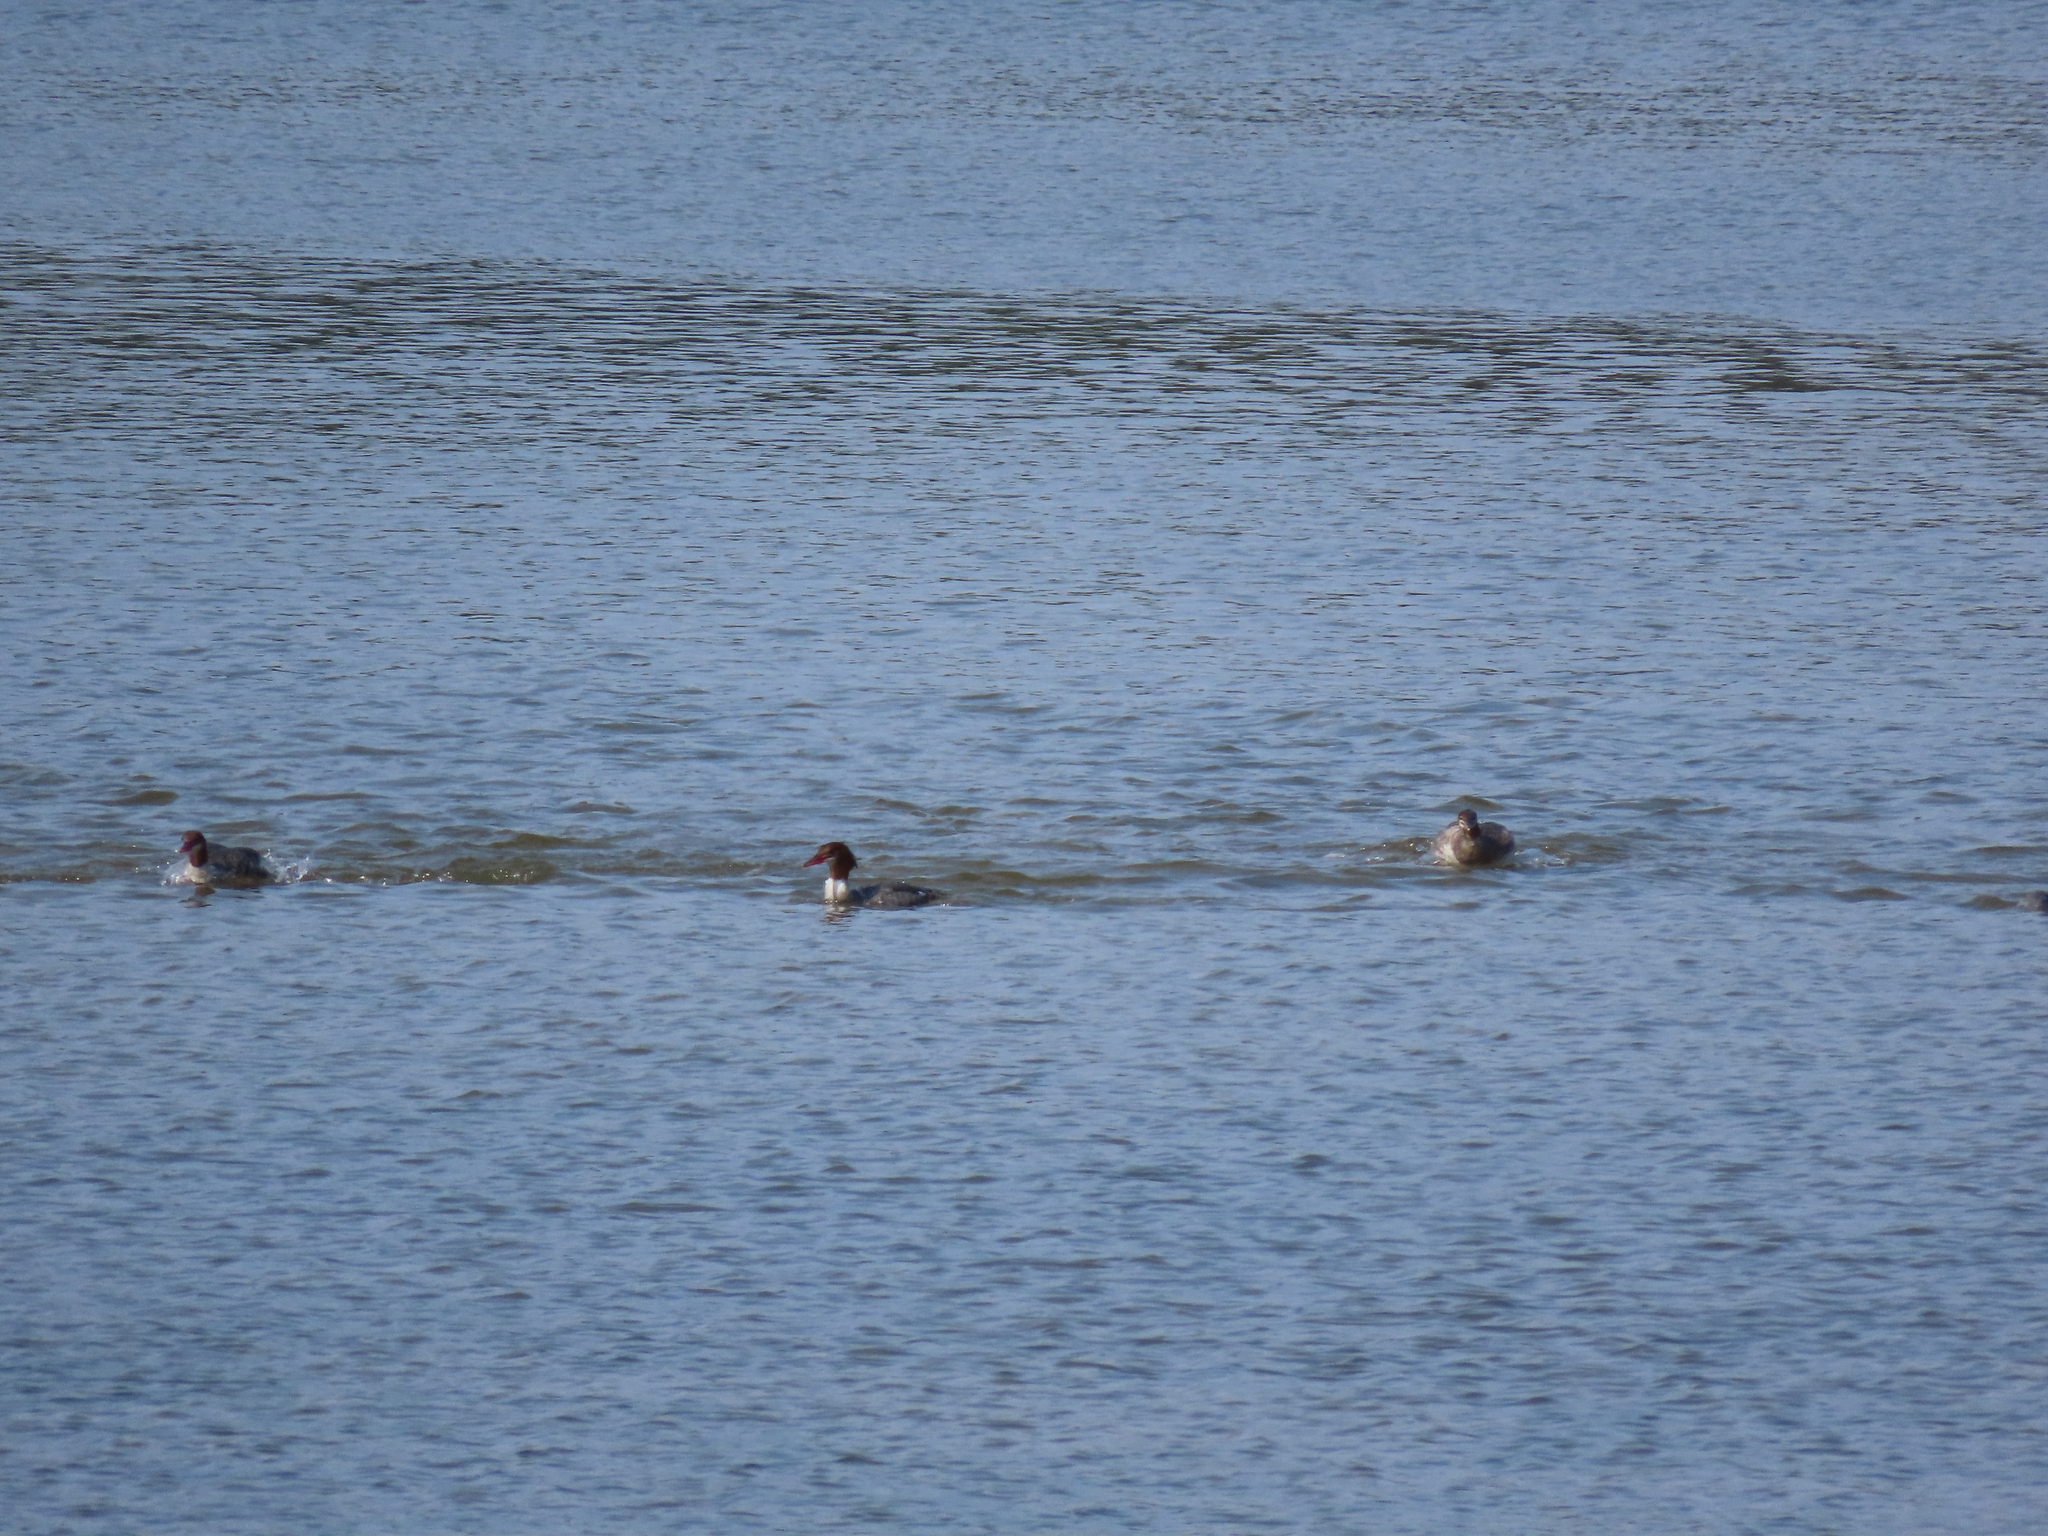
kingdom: Animalia
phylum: Chordata
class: Aves
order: Anseriformes
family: Anatidae
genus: Mergus
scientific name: Mergus merganser
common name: Common merganser
